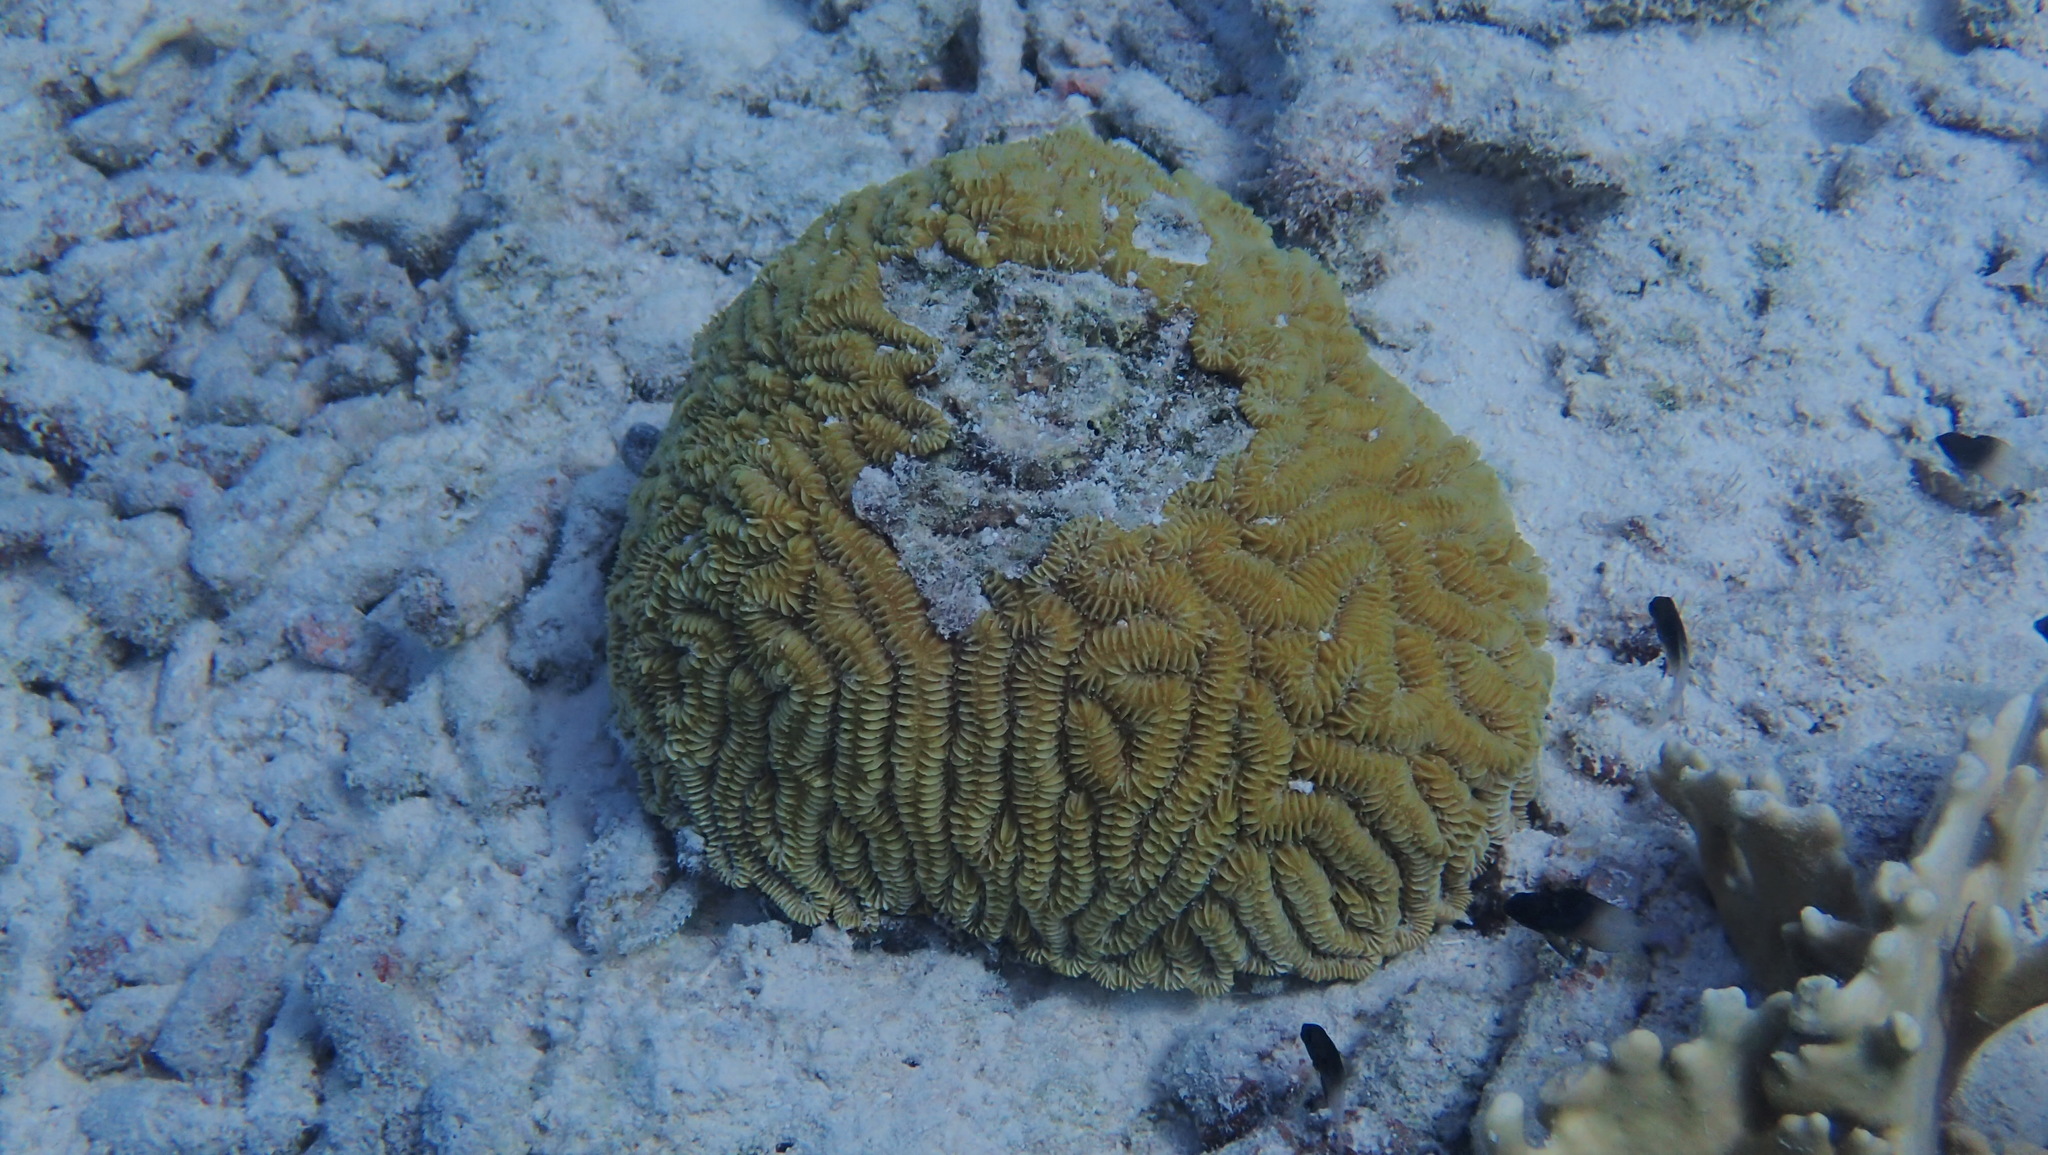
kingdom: Animalia
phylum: Cnidaria
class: Anthozoa
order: Scleractinia
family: Meandrinidae
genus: Meandrina
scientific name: Meandrina meandrites
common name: Maze coral
